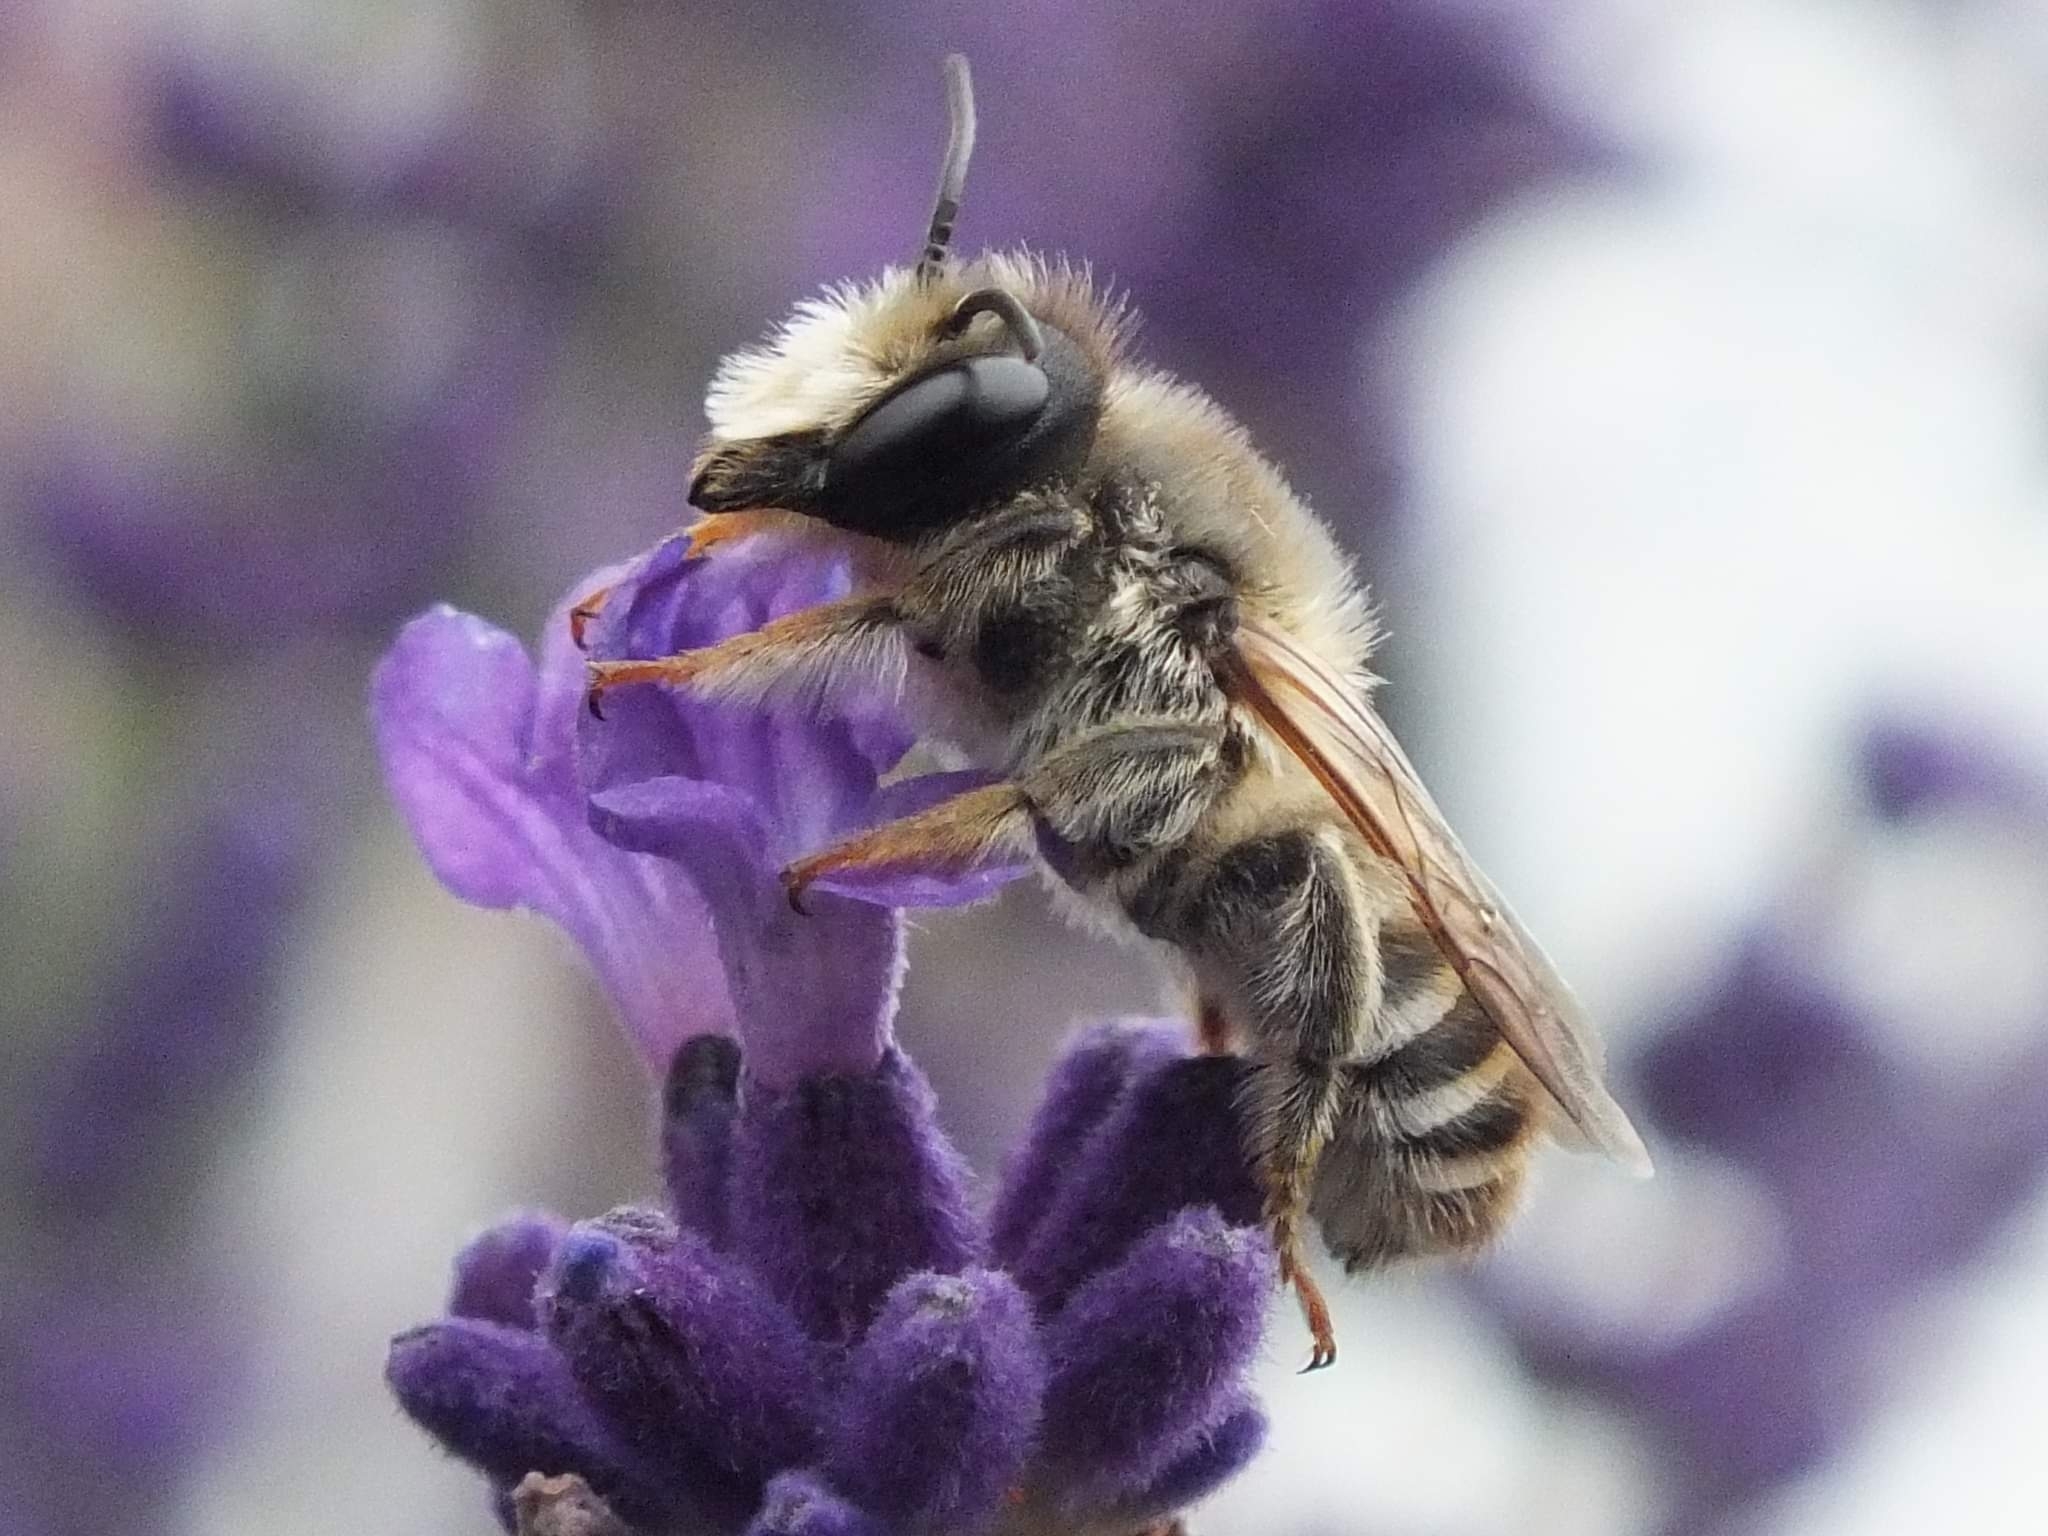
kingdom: Animalia
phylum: Arthropoda
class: Insecta
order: Hymenoptera
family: Megachilidae
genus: Megachile
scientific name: Megachile ericetorum
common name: Leafcutter bee
